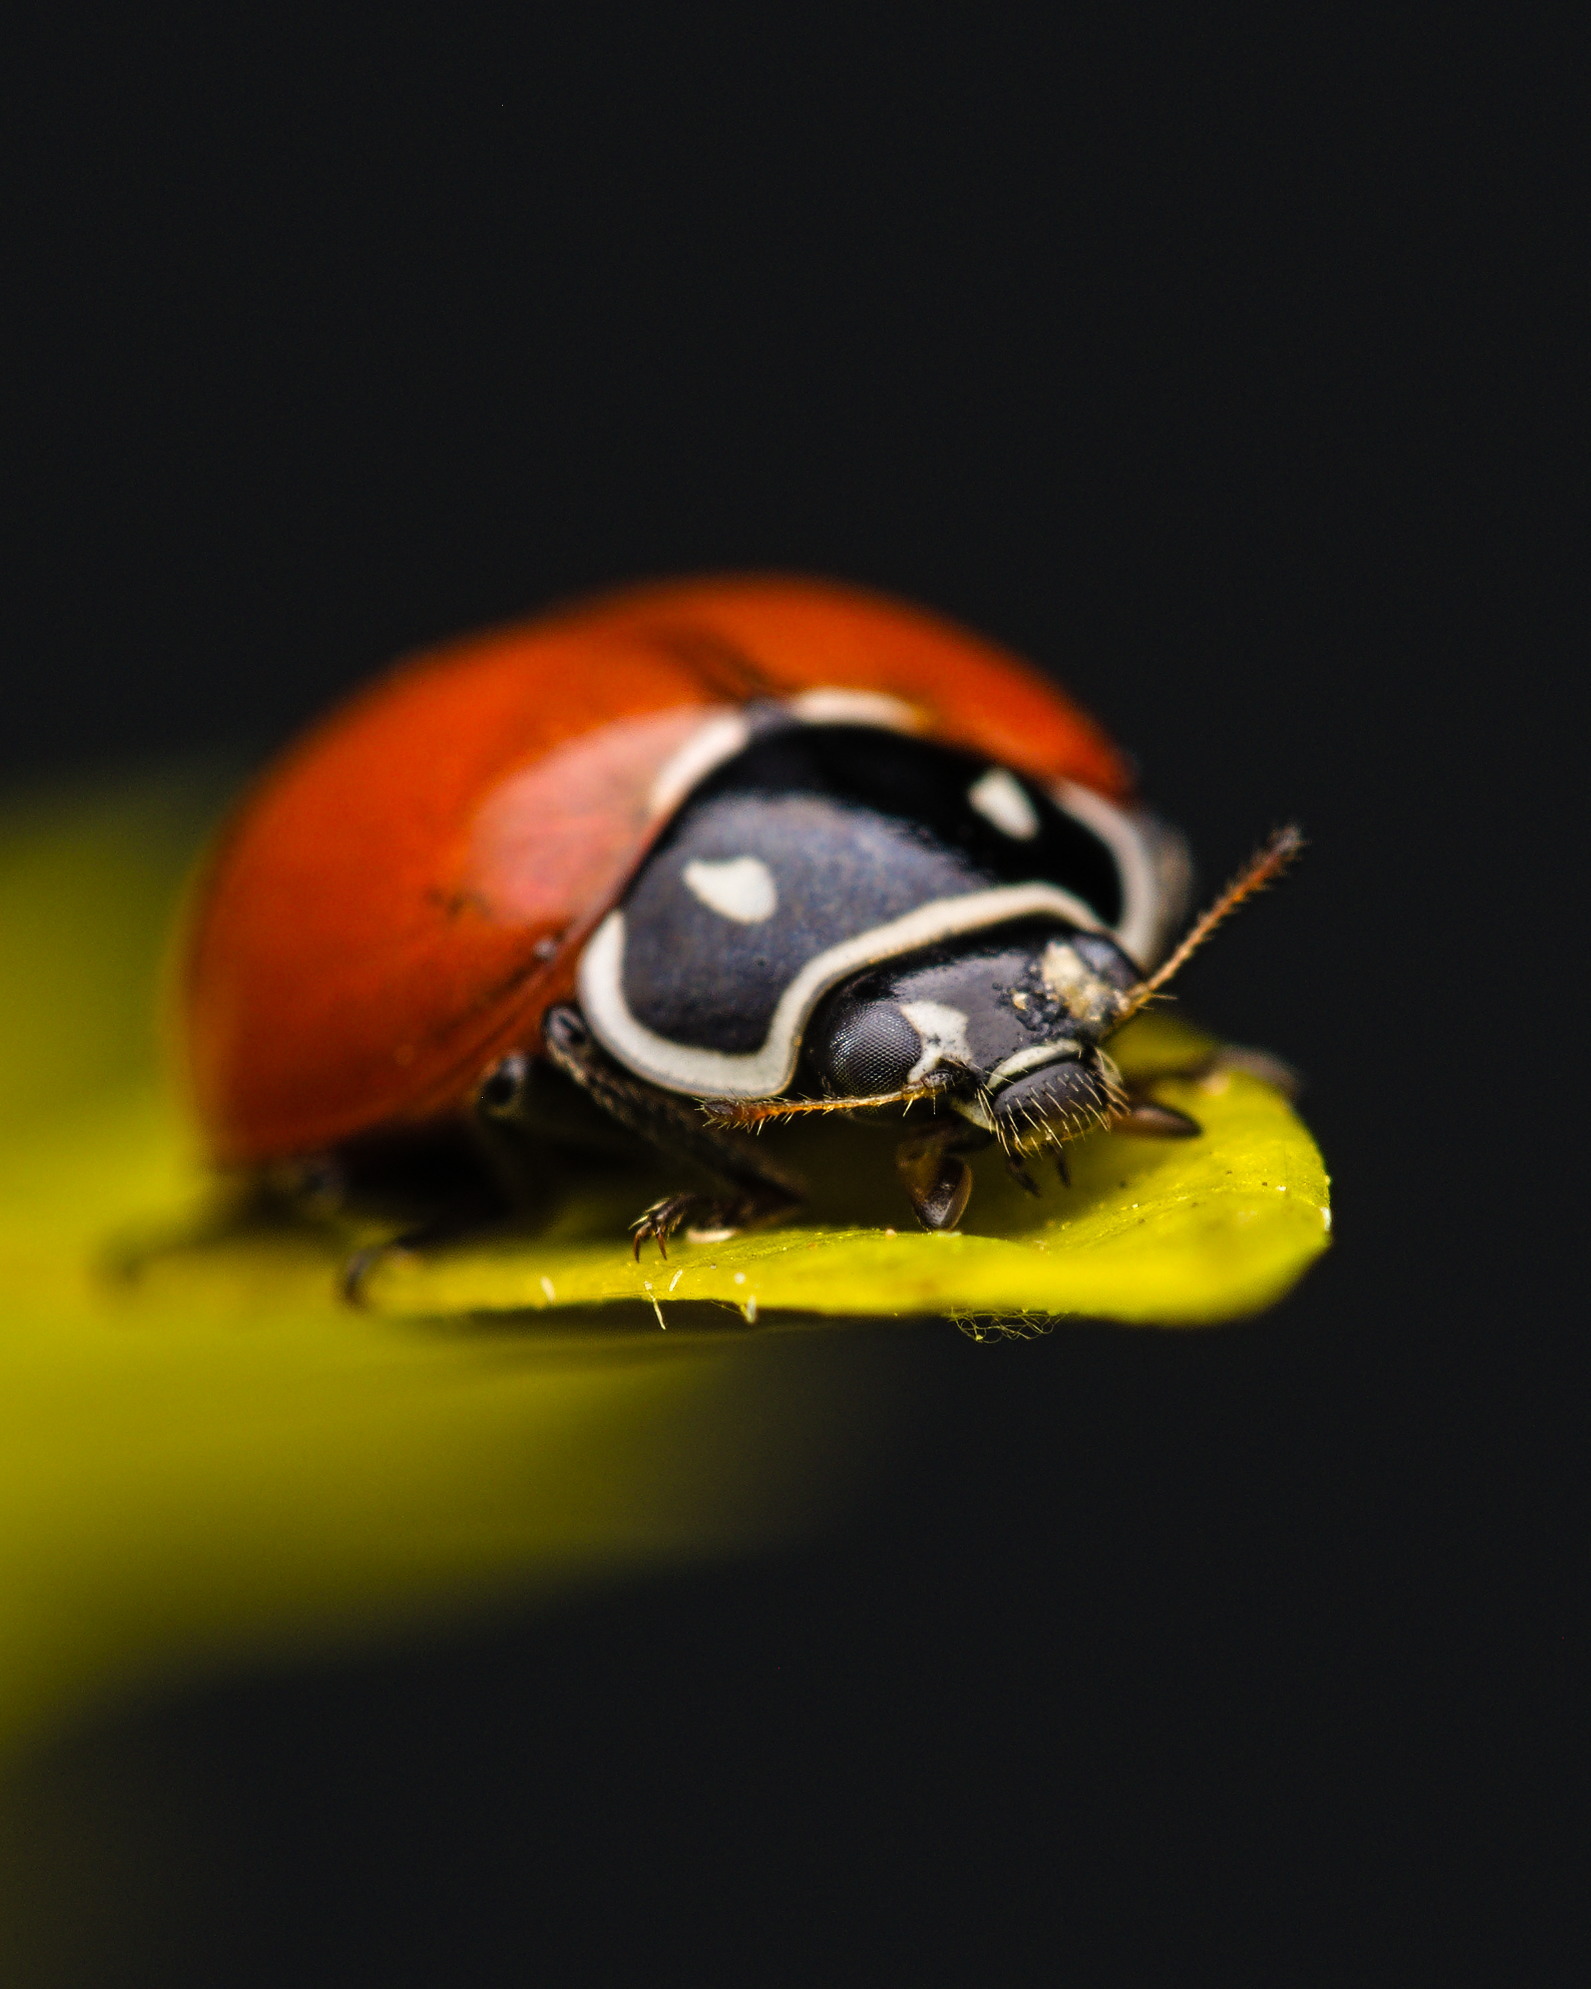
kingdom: Animalia
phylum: Arthropoda
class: Insecta
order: Coleoptera
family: Coccinellidae
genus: Cycloneda
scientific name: Cycloneda emarginata
